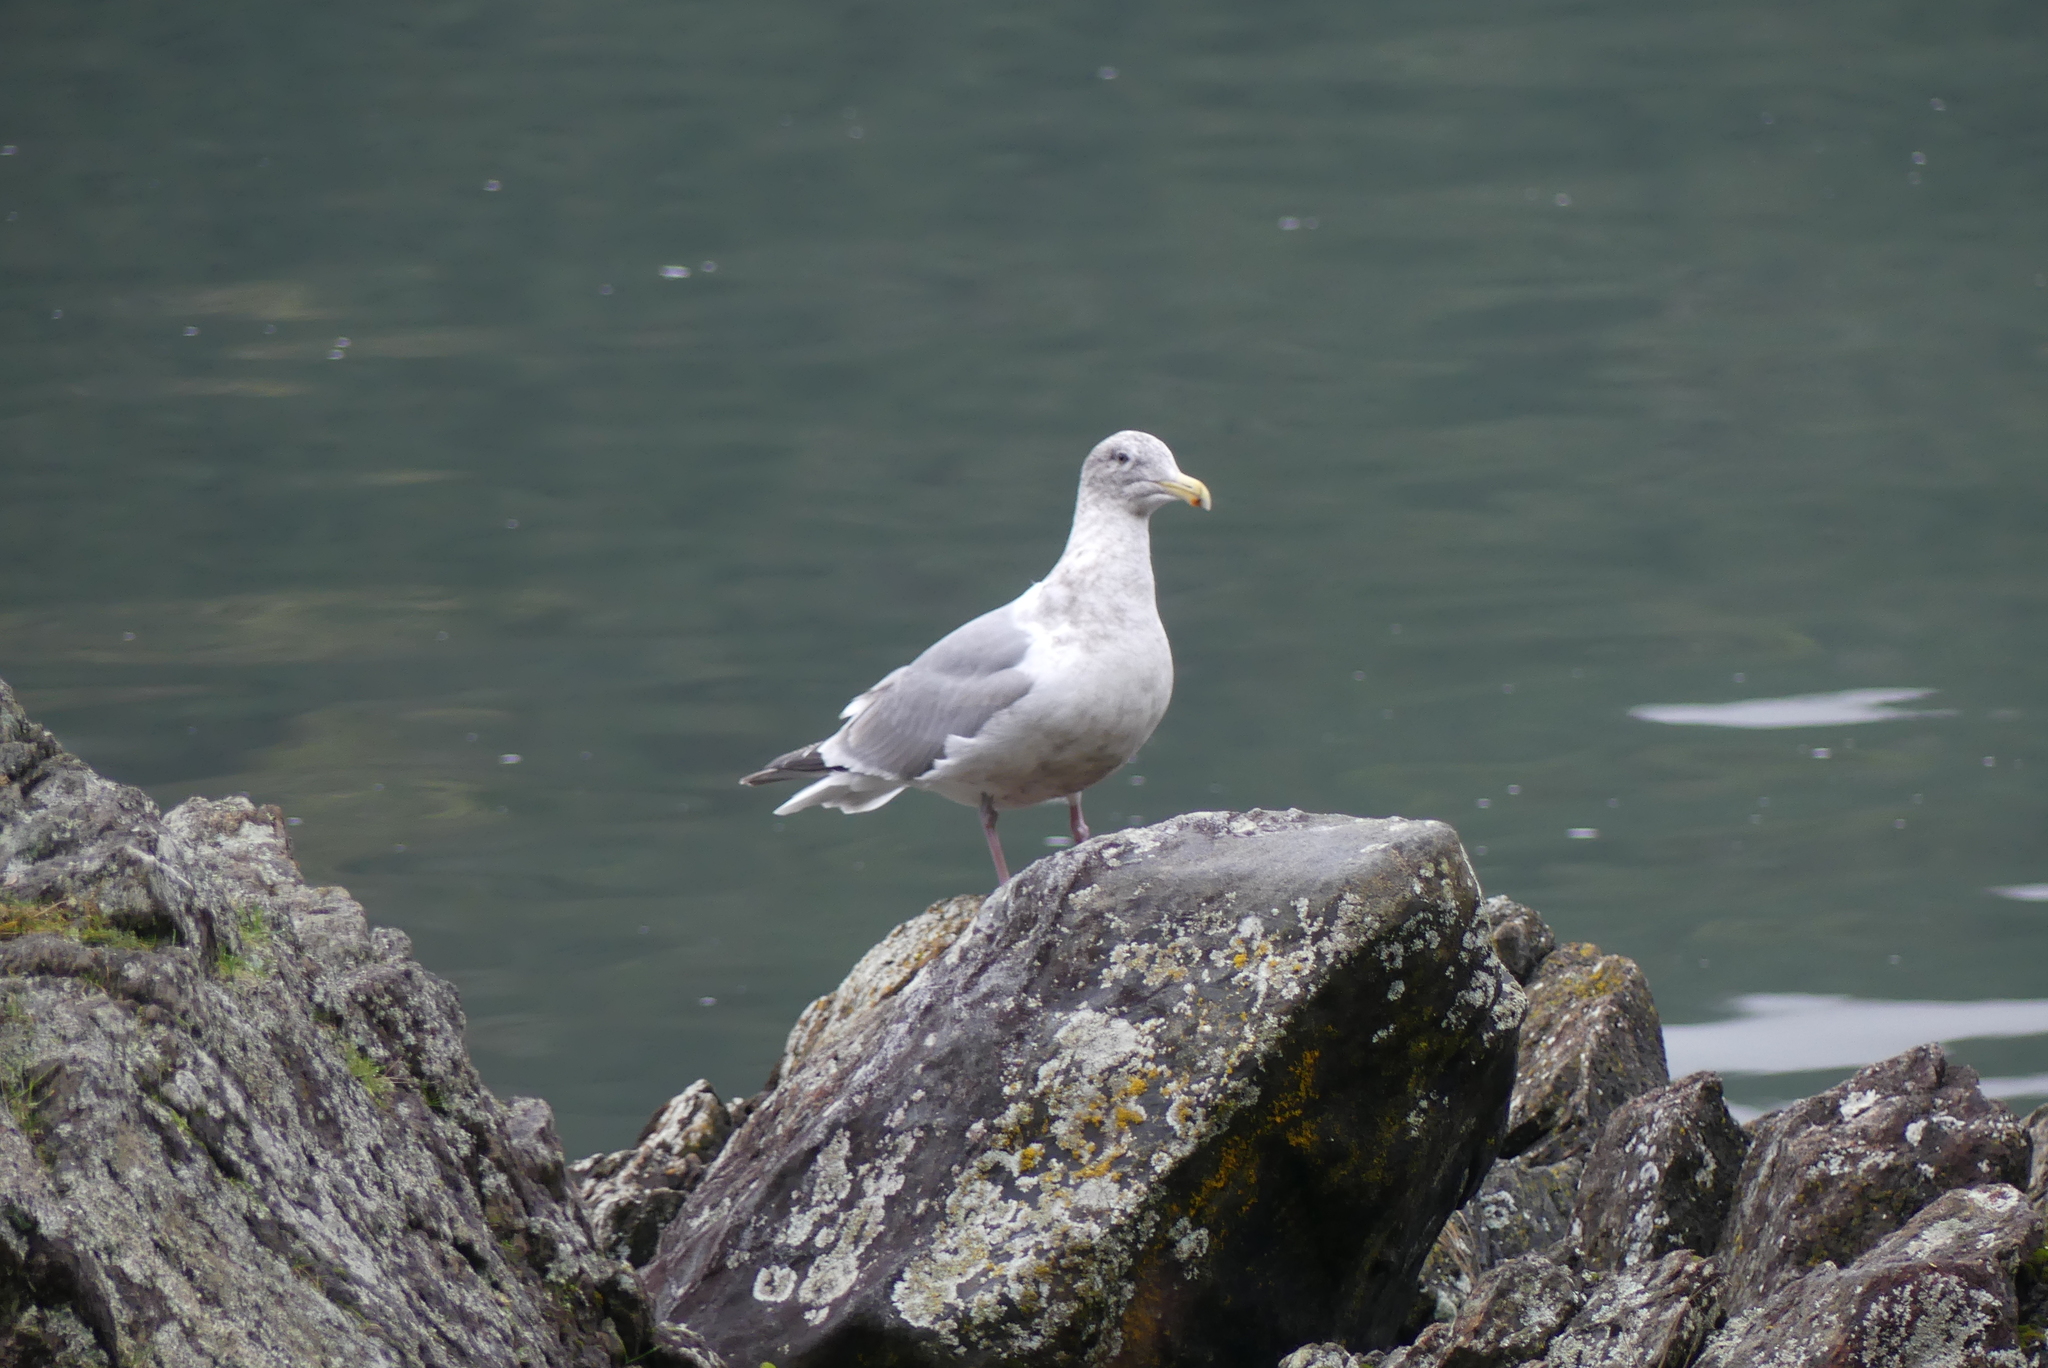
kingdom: Animalia
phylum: Chordata
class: Aves
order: Charadriiformes
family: Laridae
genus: Larus
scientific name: Larus
